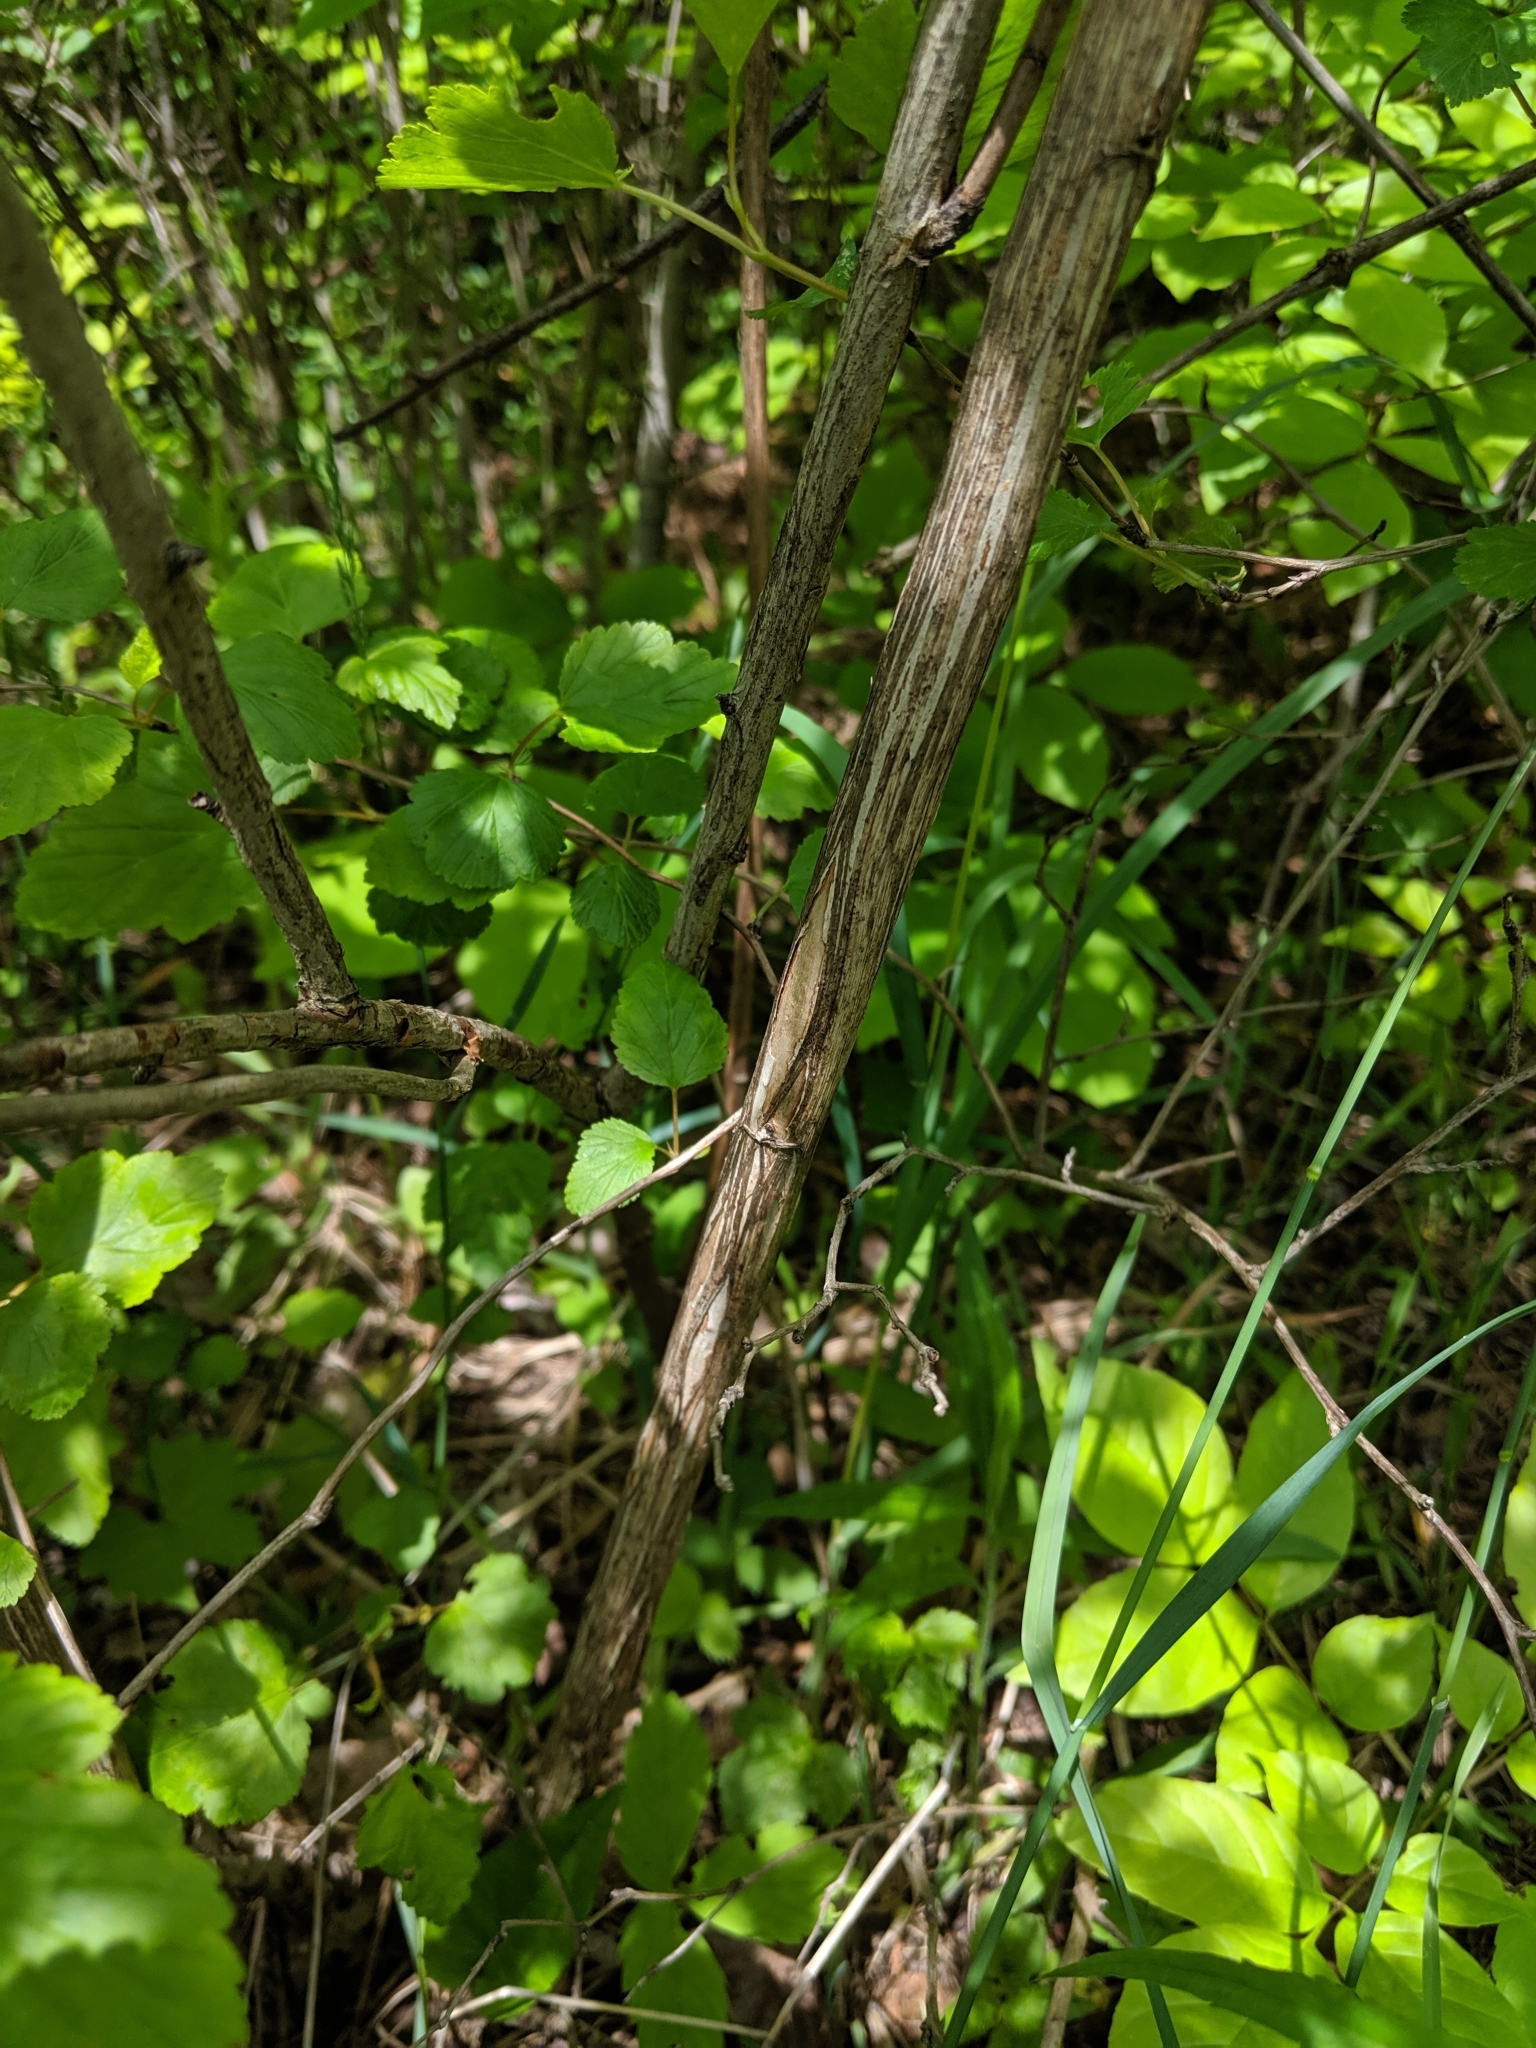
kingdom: Plantae
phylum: Tracheophyta
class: Magnoliopsida
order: Rosales
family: Rosaceae
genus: Physocarpus
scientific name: Physocarpus opulifolius
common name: Ninebark
